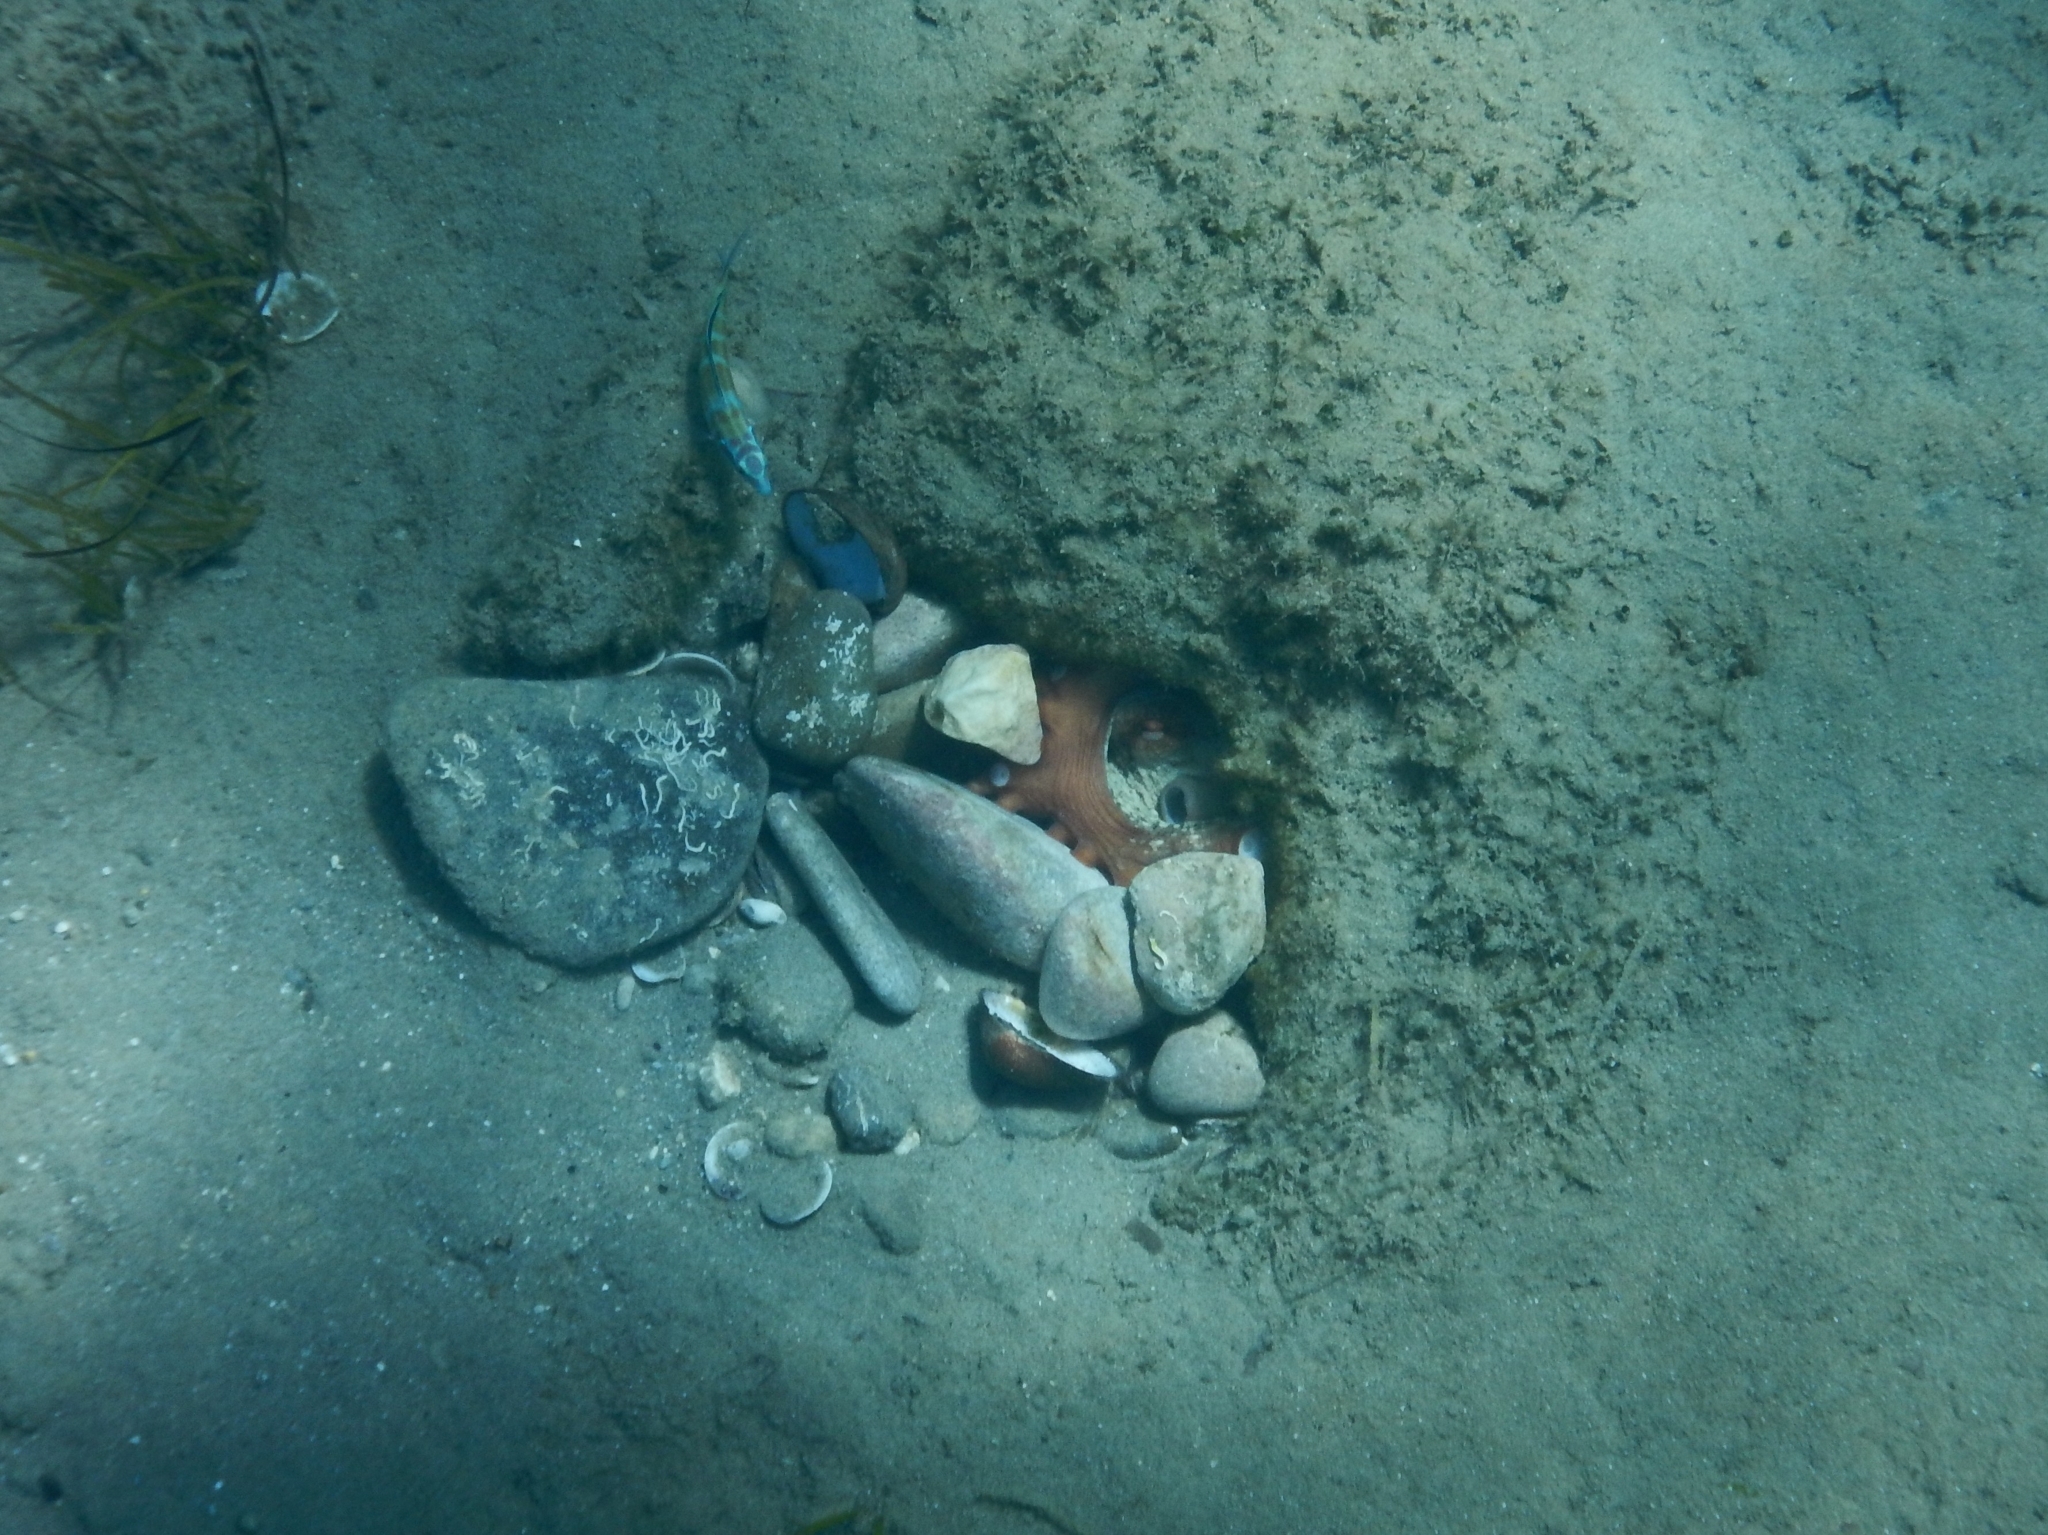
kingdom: Animalia
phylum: Mollusca
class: Cephalopoda
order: Octopoda
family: Octopodidae
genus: Octopus
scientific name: Octopus vulgaris
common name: Common octopus
